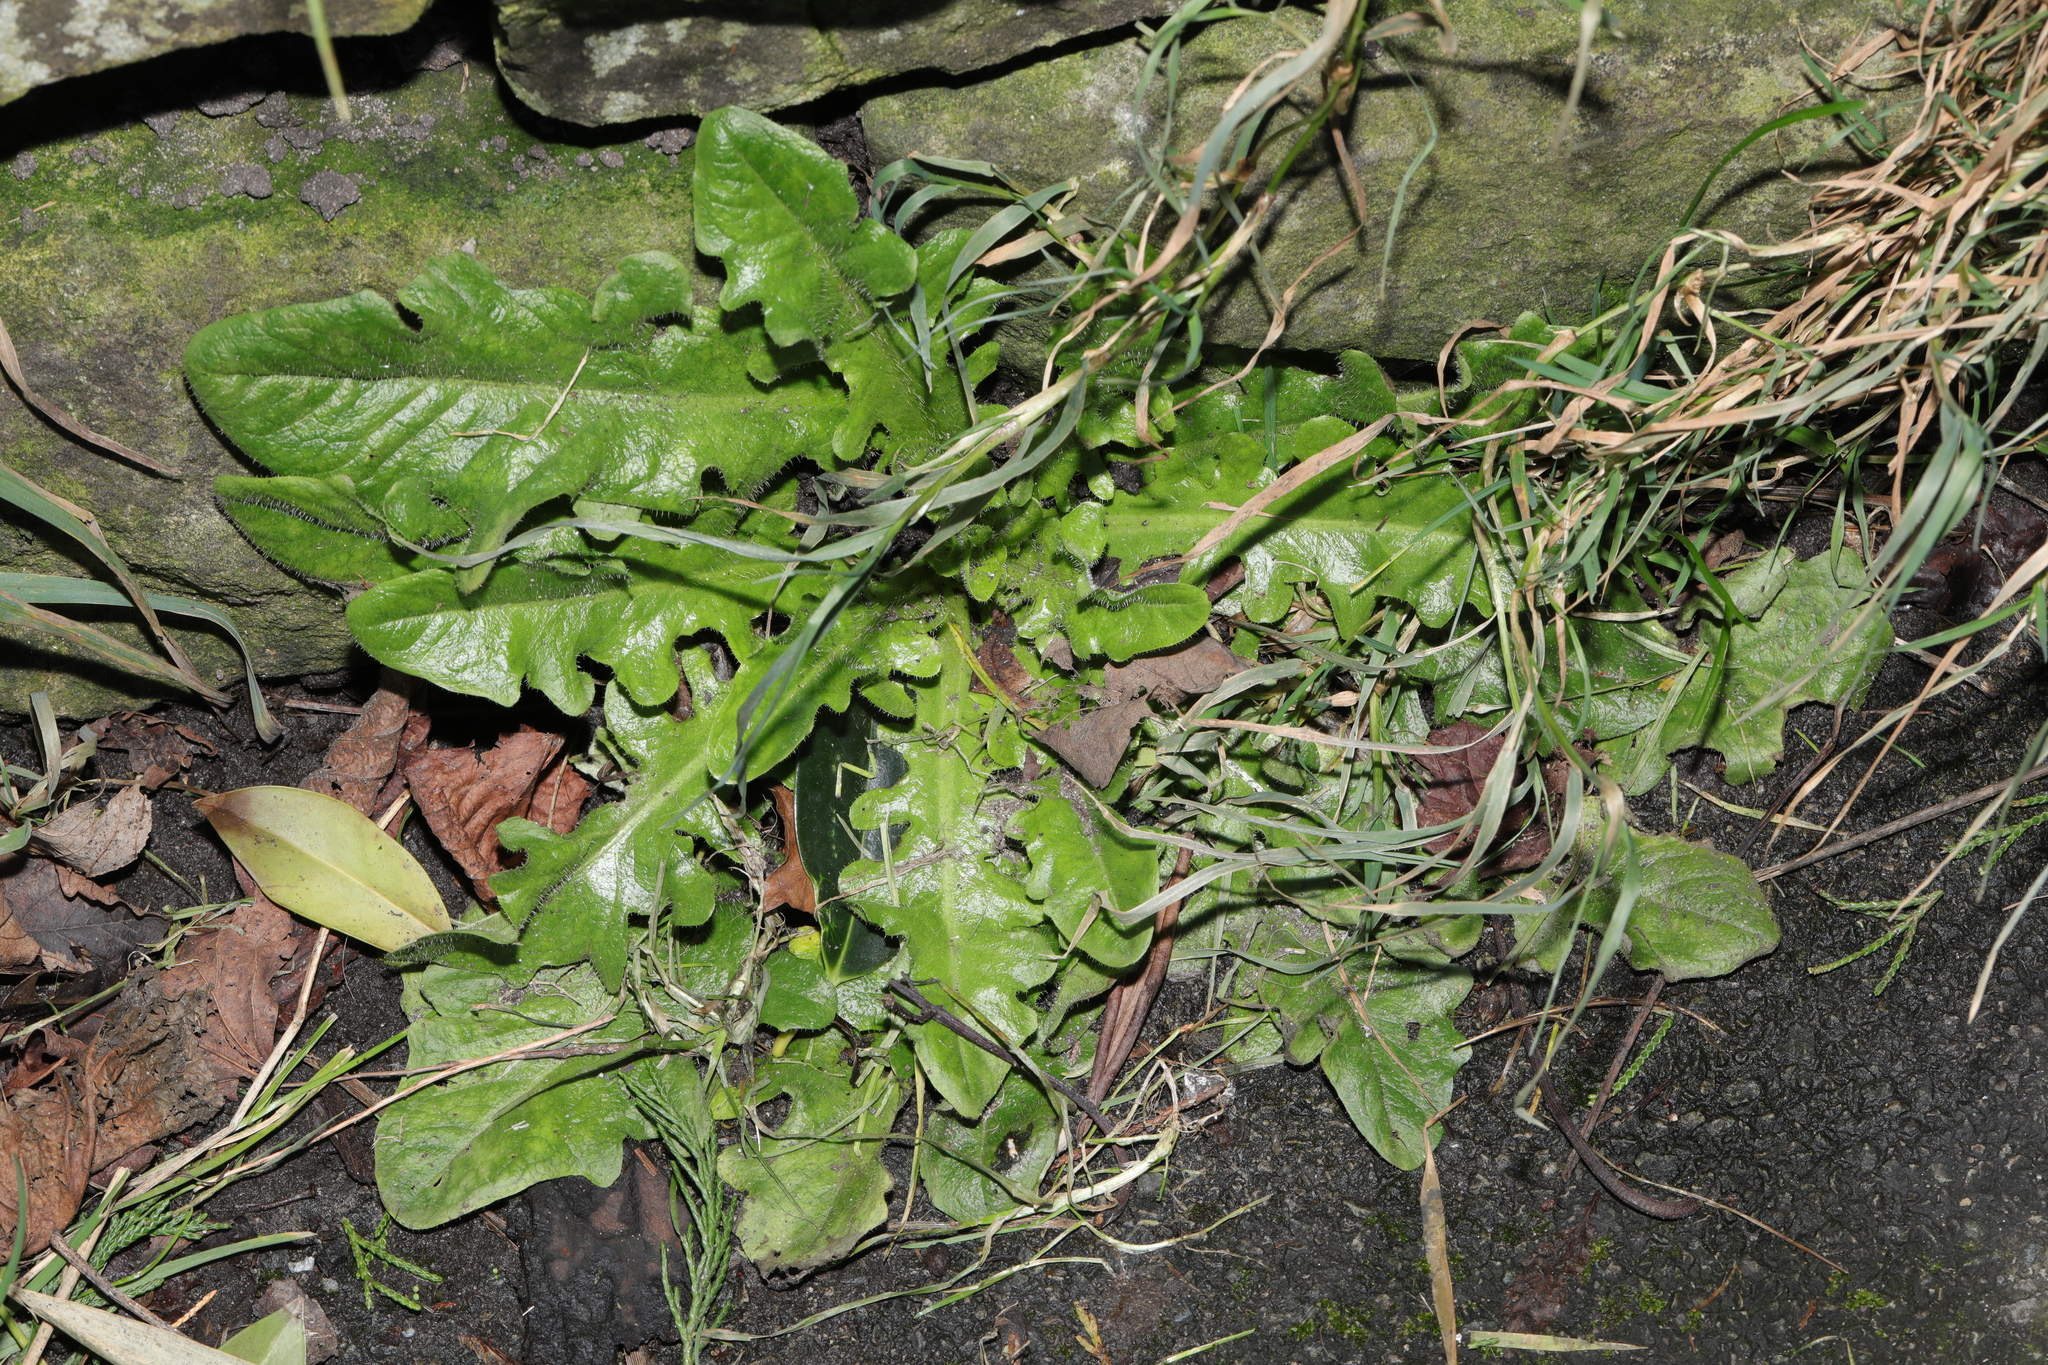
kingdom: Plantae
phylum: Tracheophyta
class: Magnoliopsida
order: Asterales
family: Asteraceae
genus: Hypochaeris
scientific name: Hypochaeris radicata
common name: Flatweed
